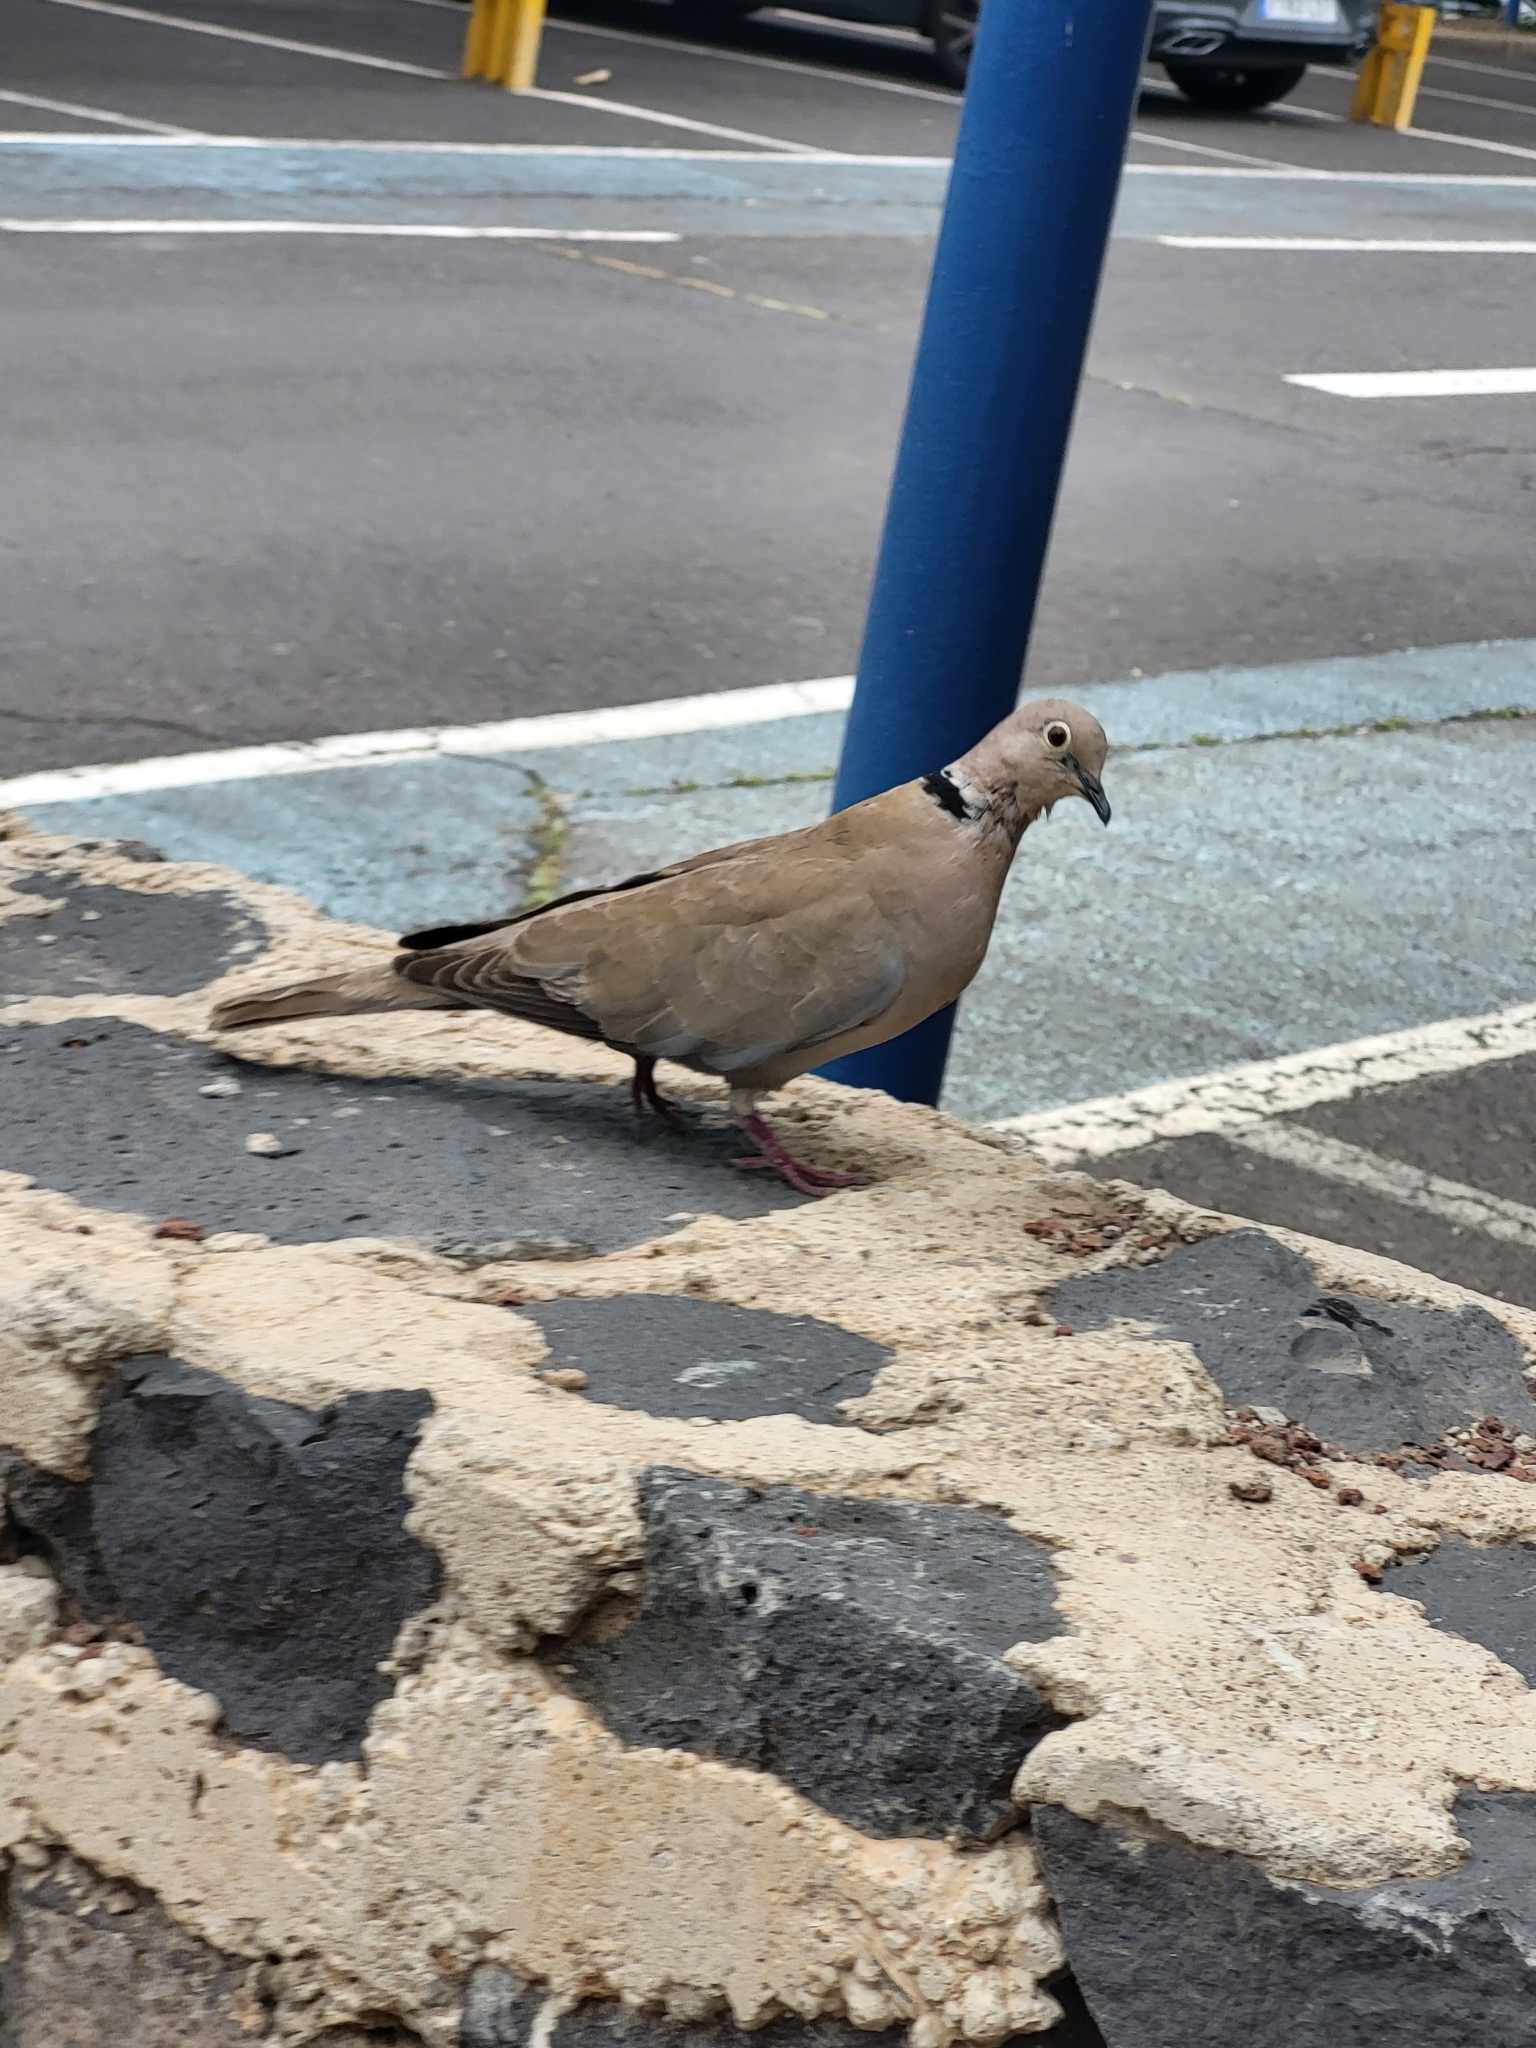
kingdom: Animalia
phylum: Chordata
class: Aves
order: Columbiformes
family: Columbidae
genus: Streptopelia
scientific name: Streptopelia decaocto
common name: Eurasian collared dove
